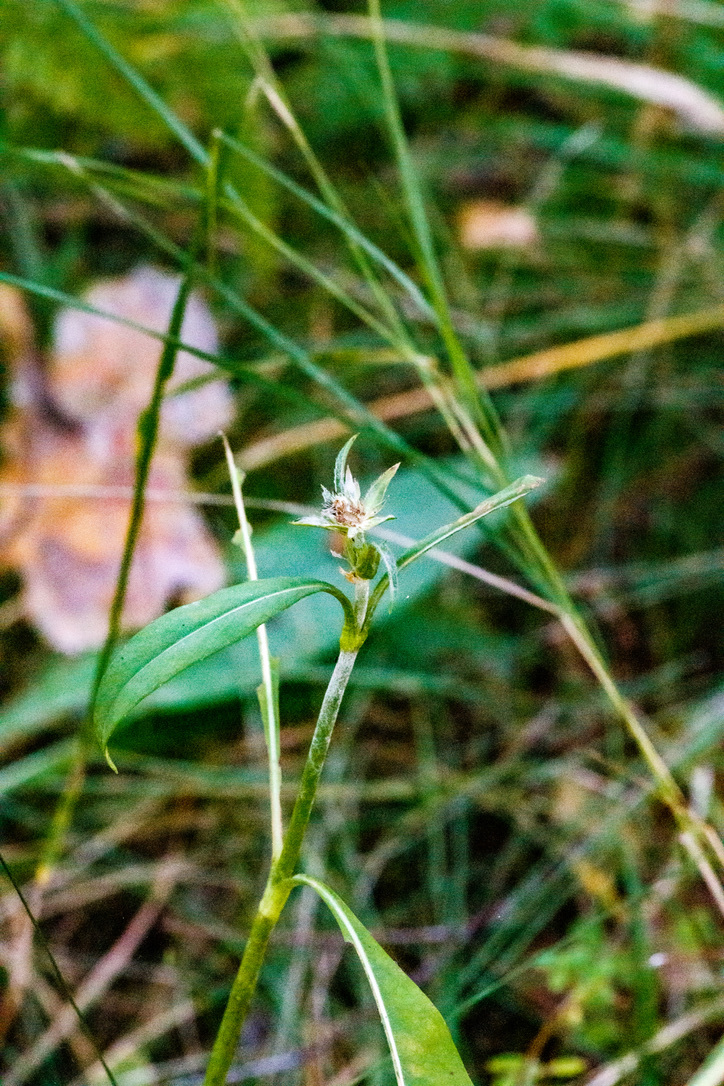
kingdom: Plantae
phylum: Tracheophyta
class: Magnoliopsida
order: Dipsacales
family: Caprifoliaceae
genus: Succisa
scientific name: Succisa pratensis
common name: Devil's-bit
